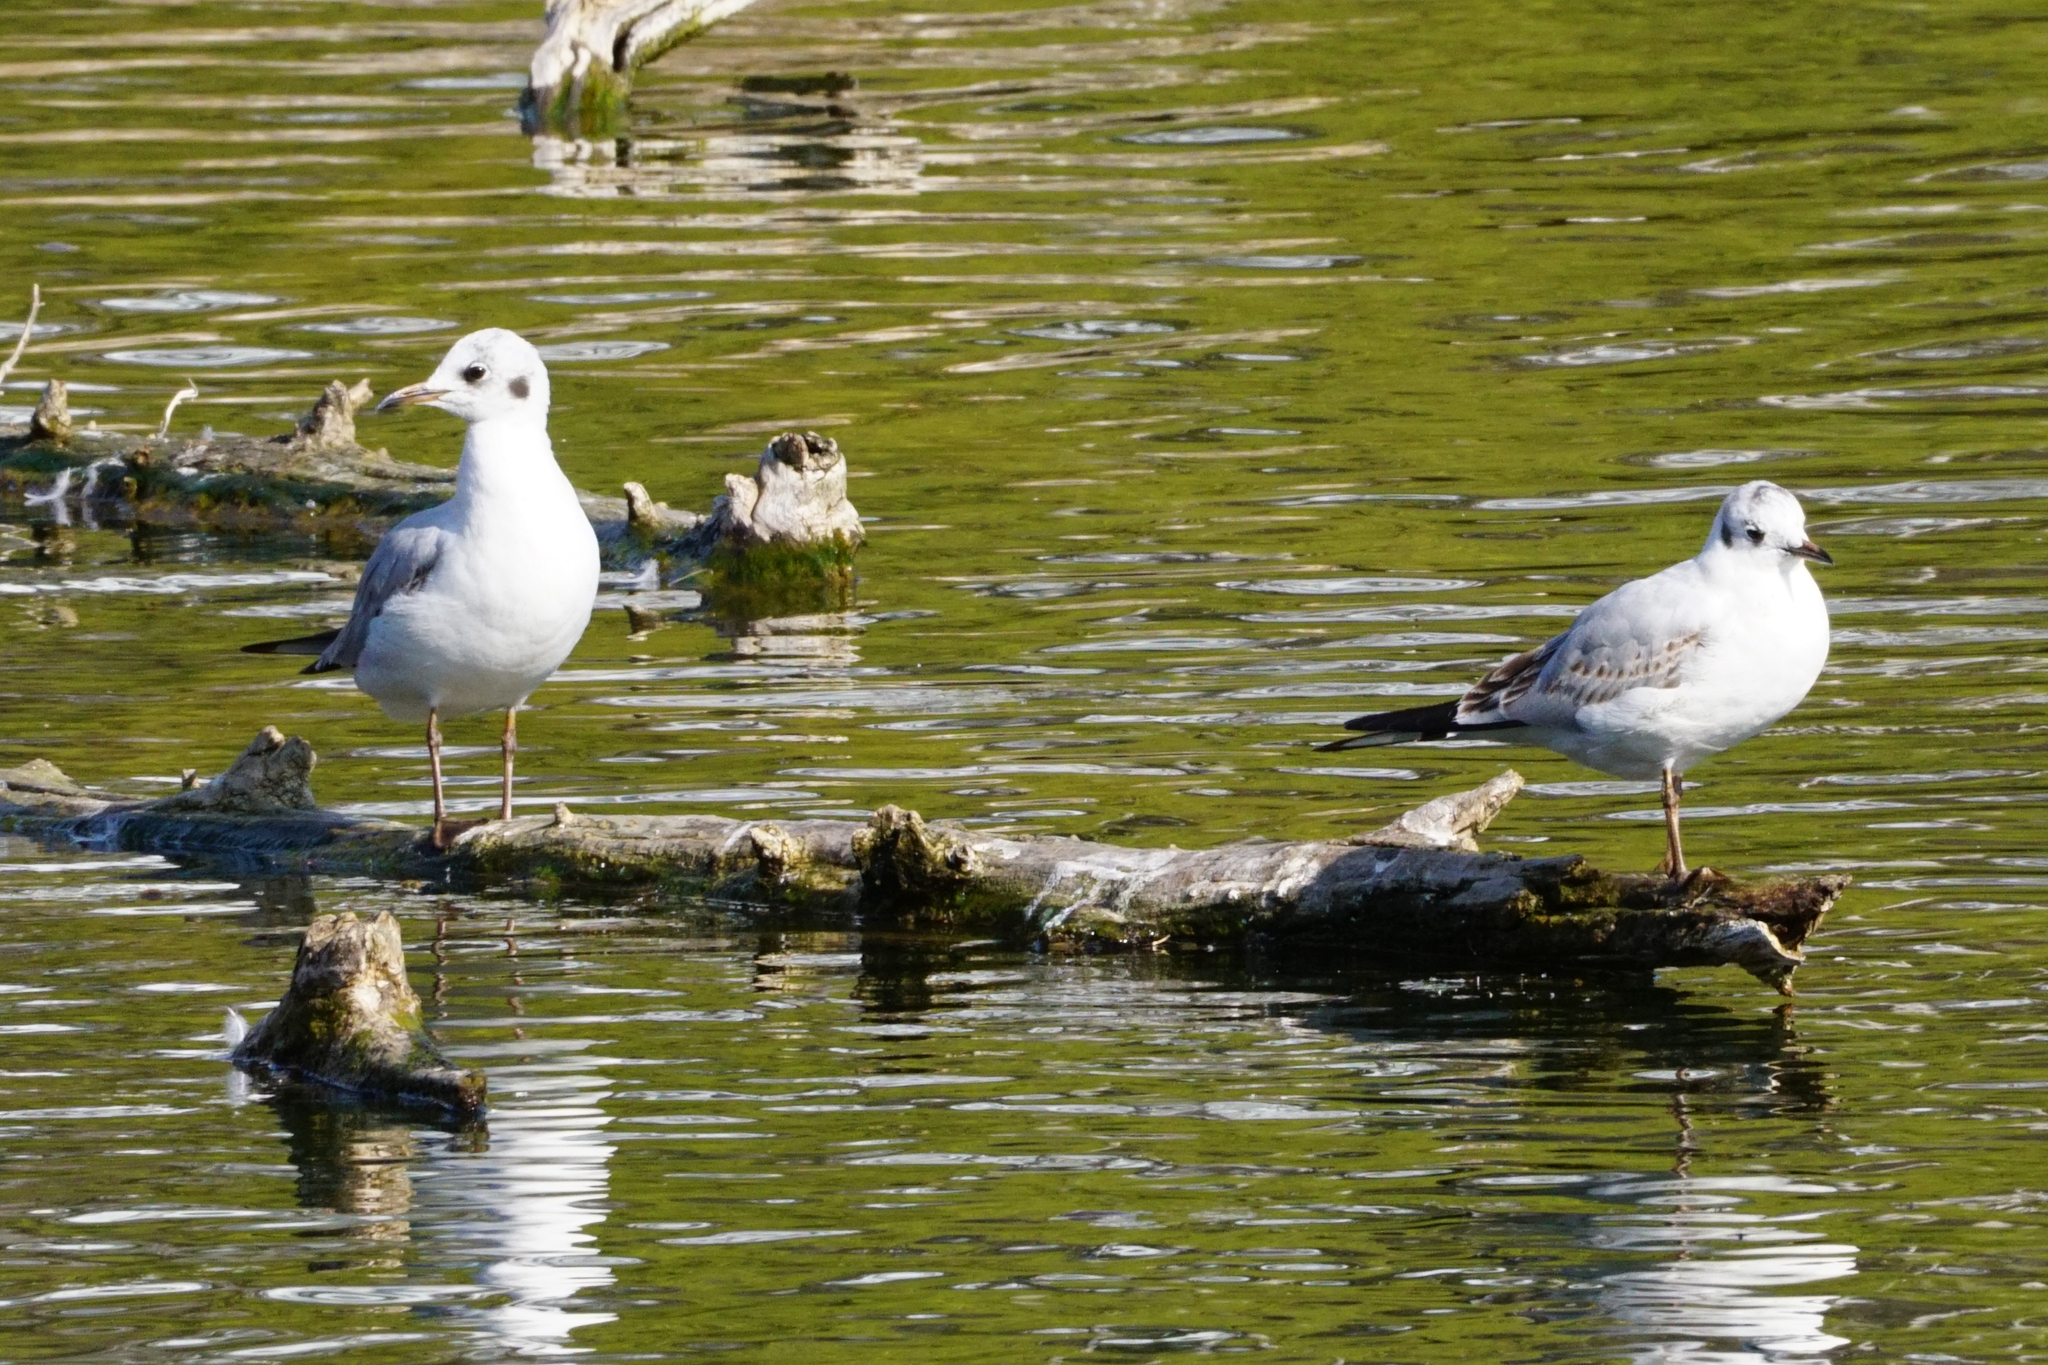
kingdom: Animalia
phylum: Chordata
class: Aves
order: Charadriiformes
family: Laridae
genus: Chroicocephalus
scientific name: Chroicocephalus ridibundus
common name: Black-headed gull
